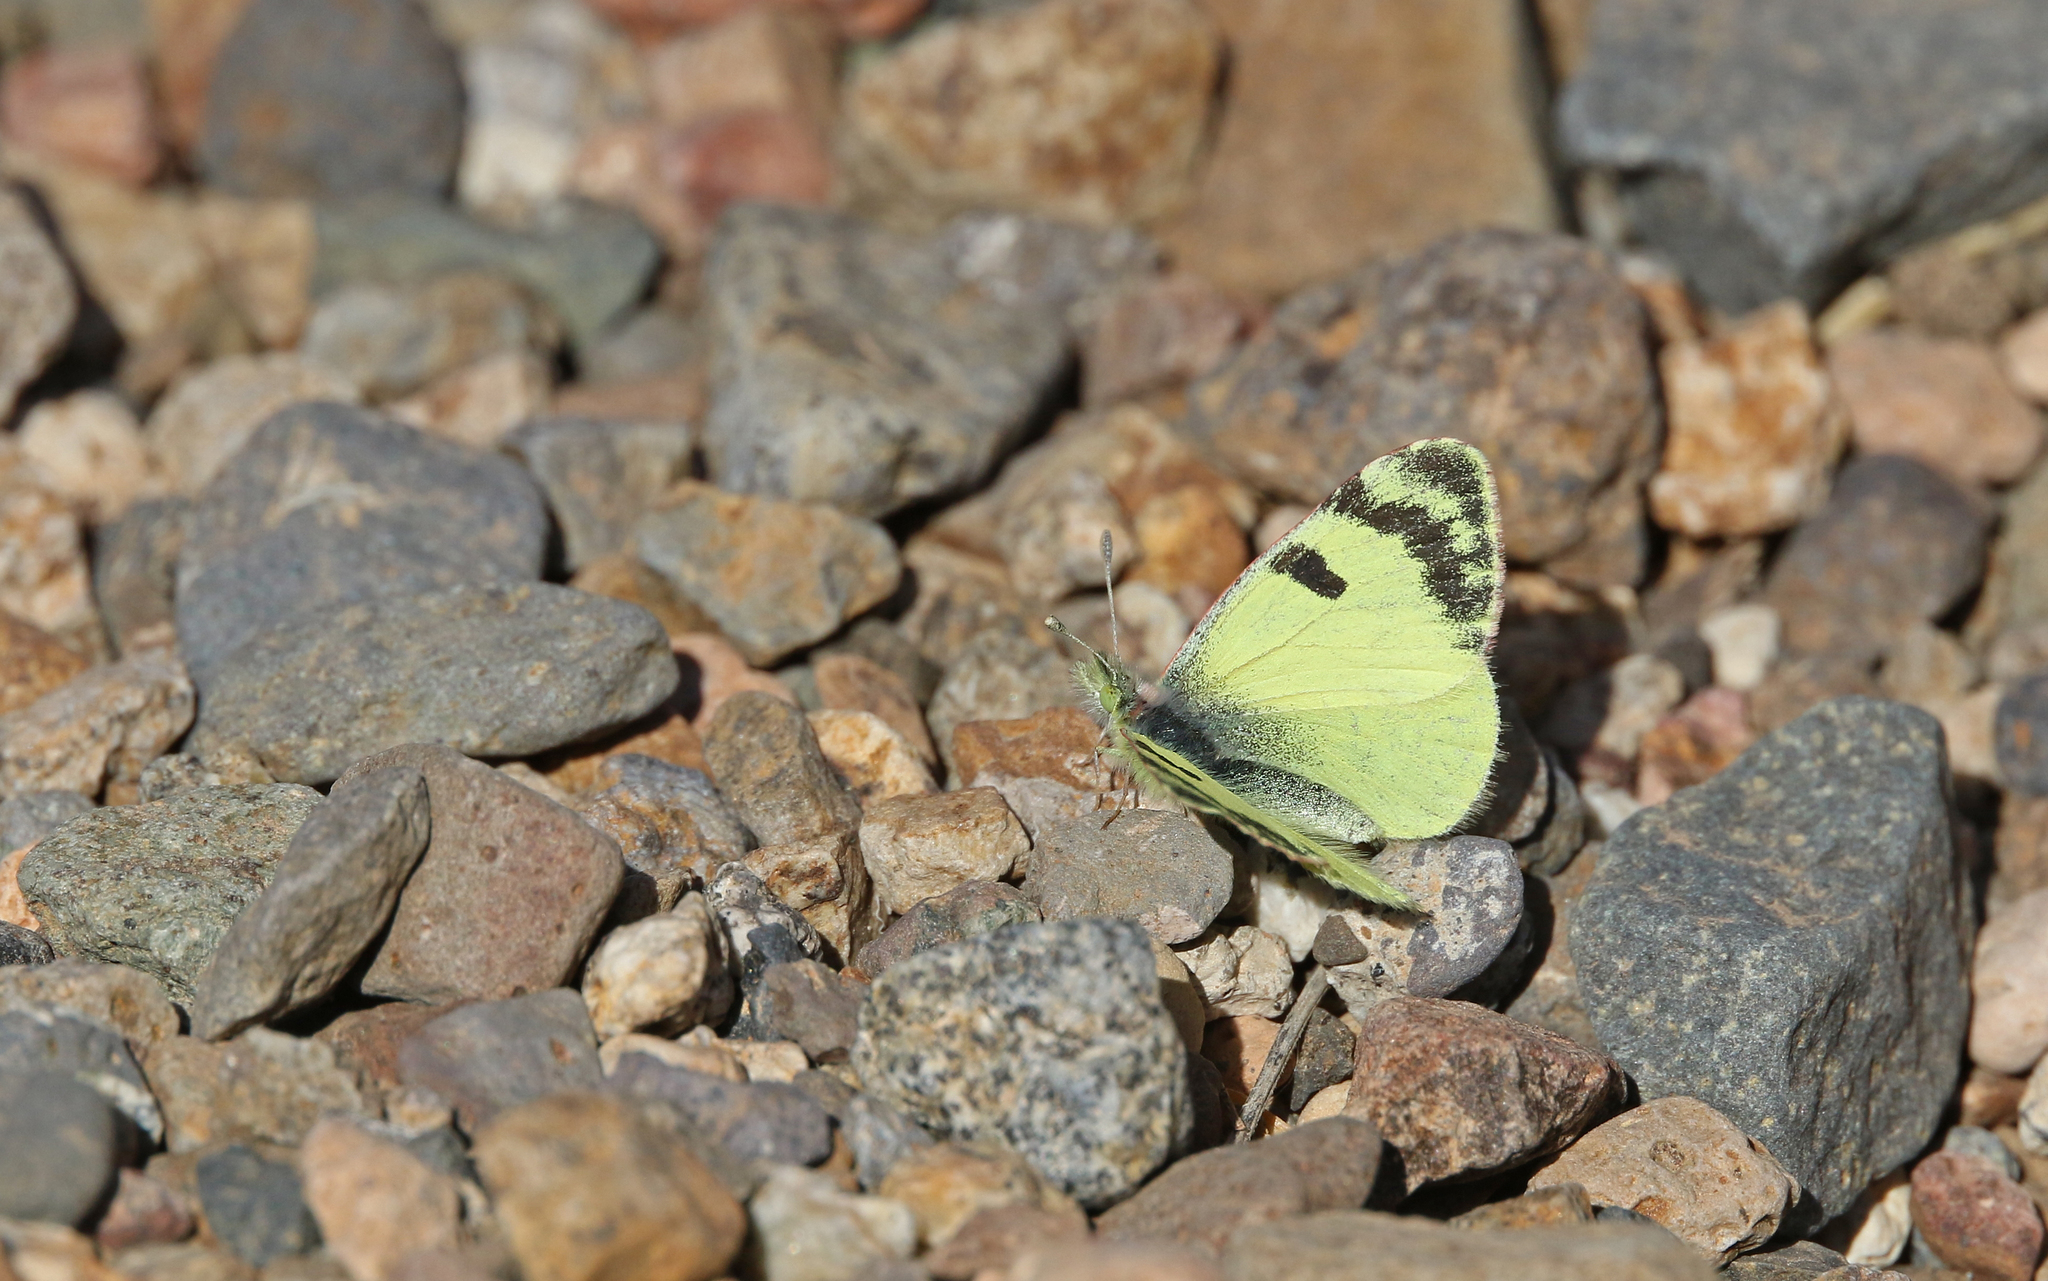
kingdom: Animalia
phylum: Arthropoda
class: Insecta
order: Lepidoptera
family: Pieridae
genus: Elphinstonia
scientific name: Elphinstonia charlonia
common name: Greenish black-tip
